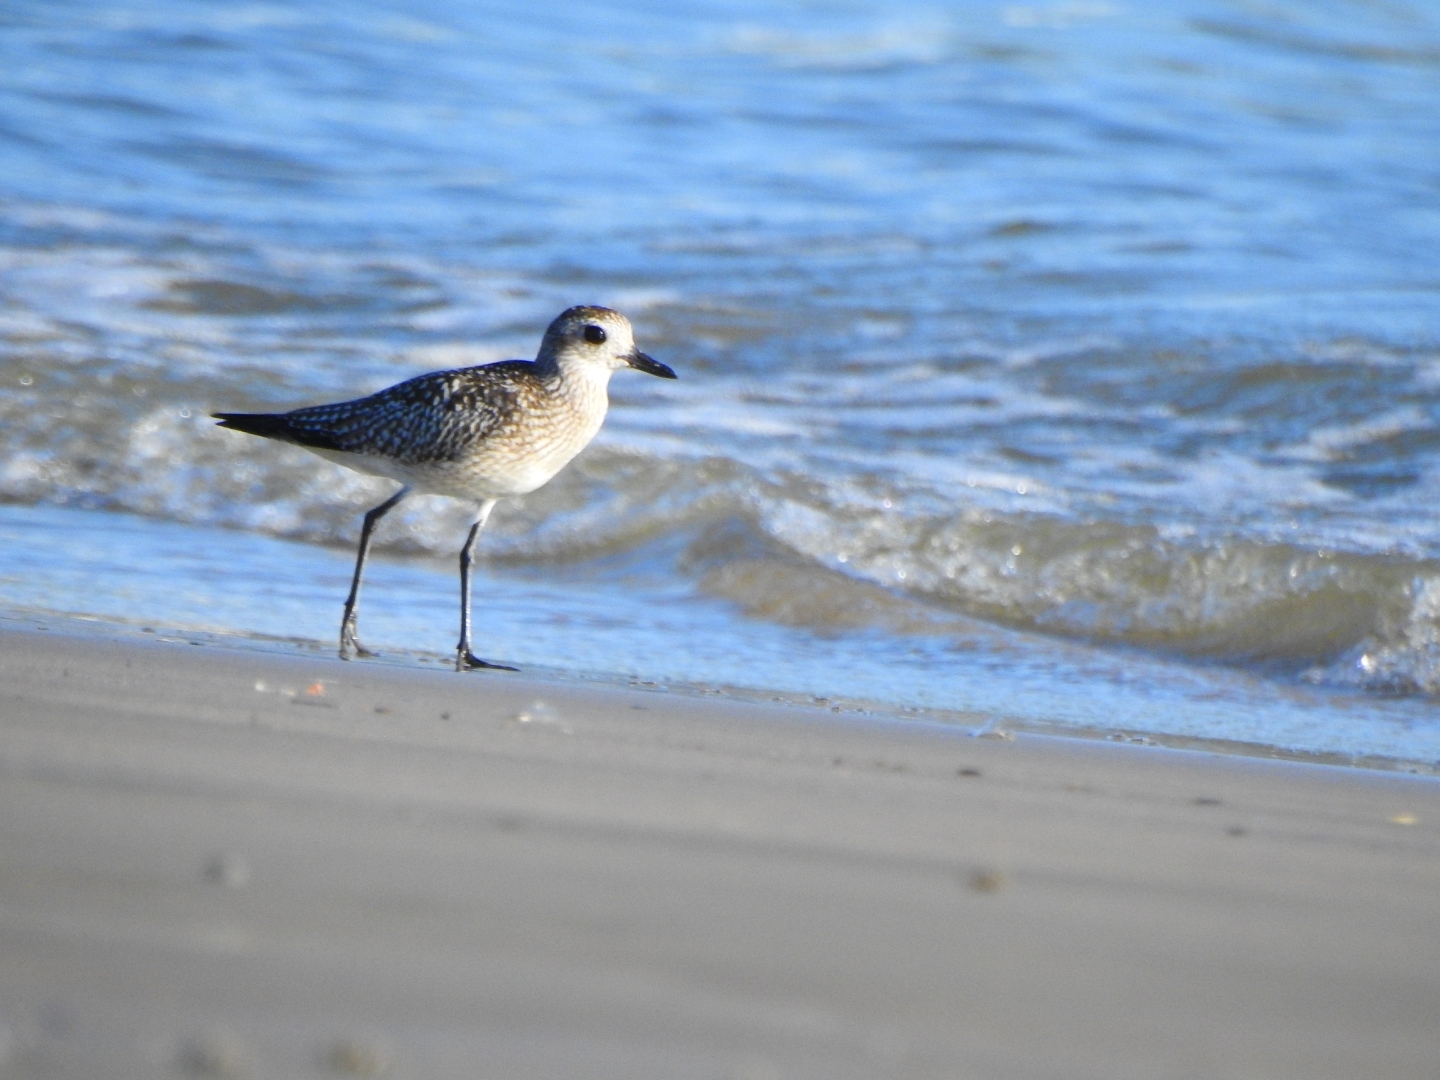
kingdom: Animalia
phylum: Chordata
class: Aves
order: Charadriiformes
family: Charadriidae
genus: Pluvialis
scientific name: Pluvialis squatarola
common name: Grey plover
